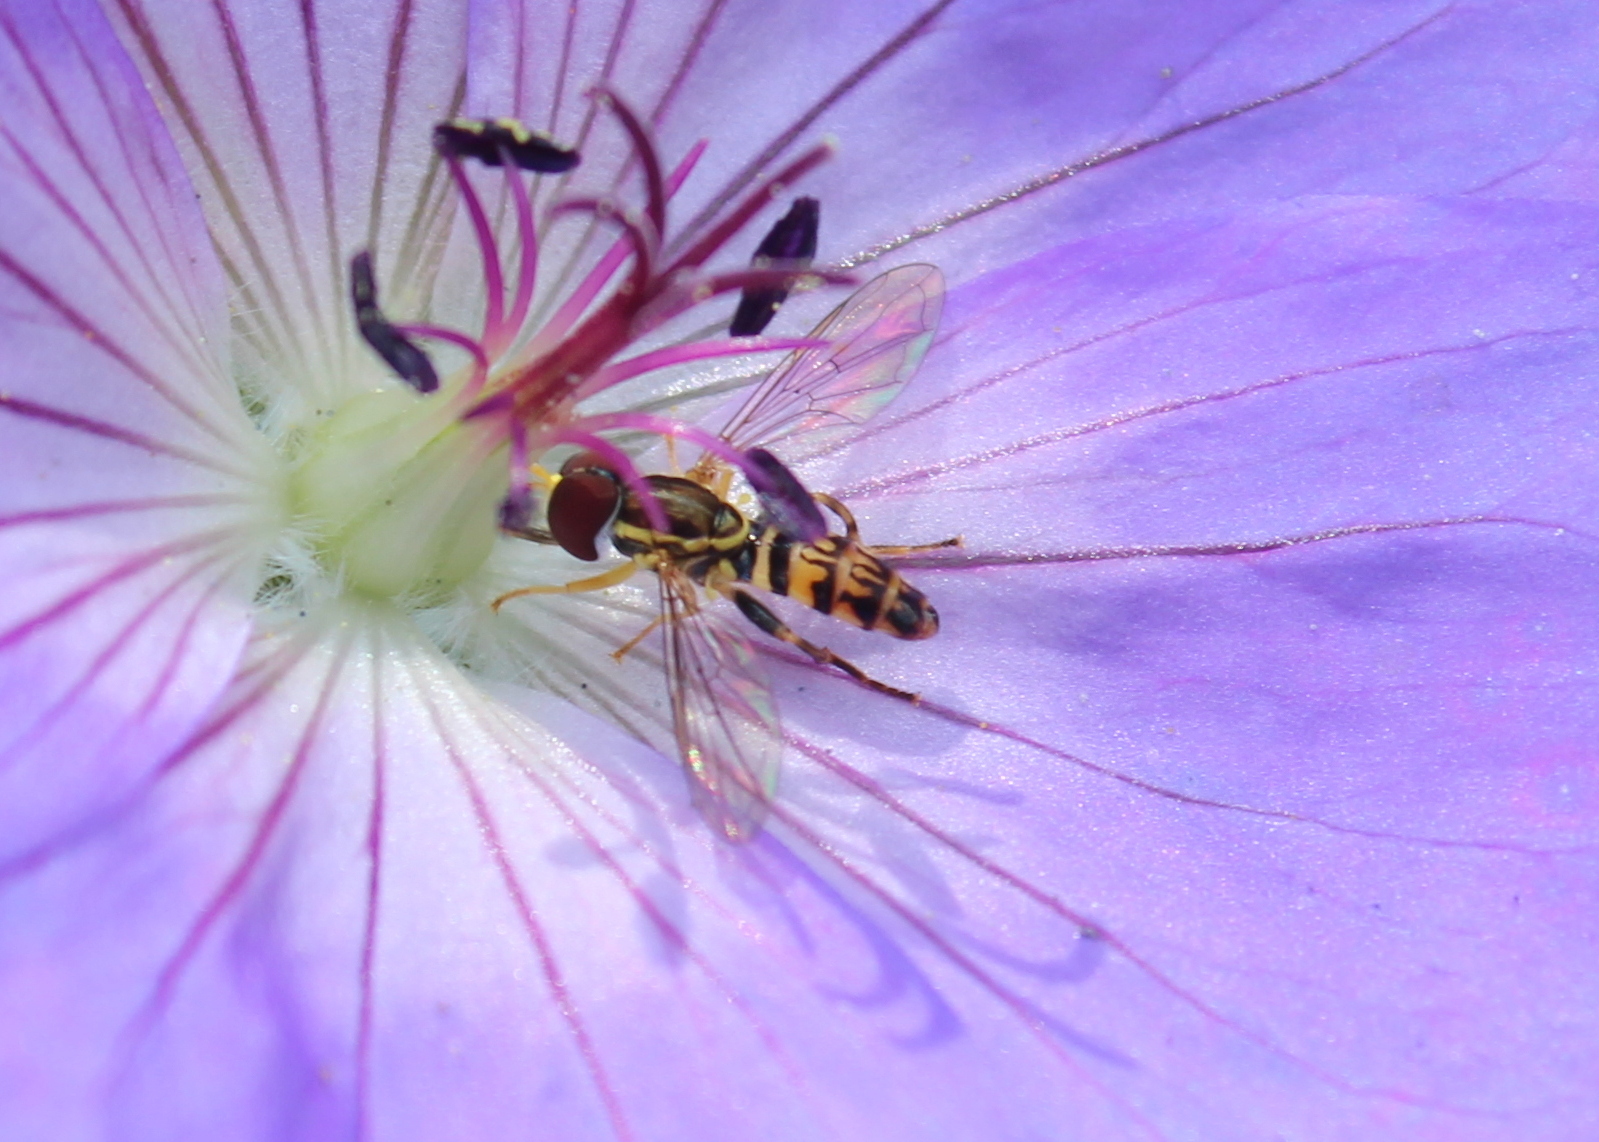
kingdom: Animalia
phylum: Arthropoda
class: Insecta
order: Diptera
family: Syrphidae
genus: Toxomerus
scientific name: Toxomerus geminatus
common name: Eastern calligrapher
